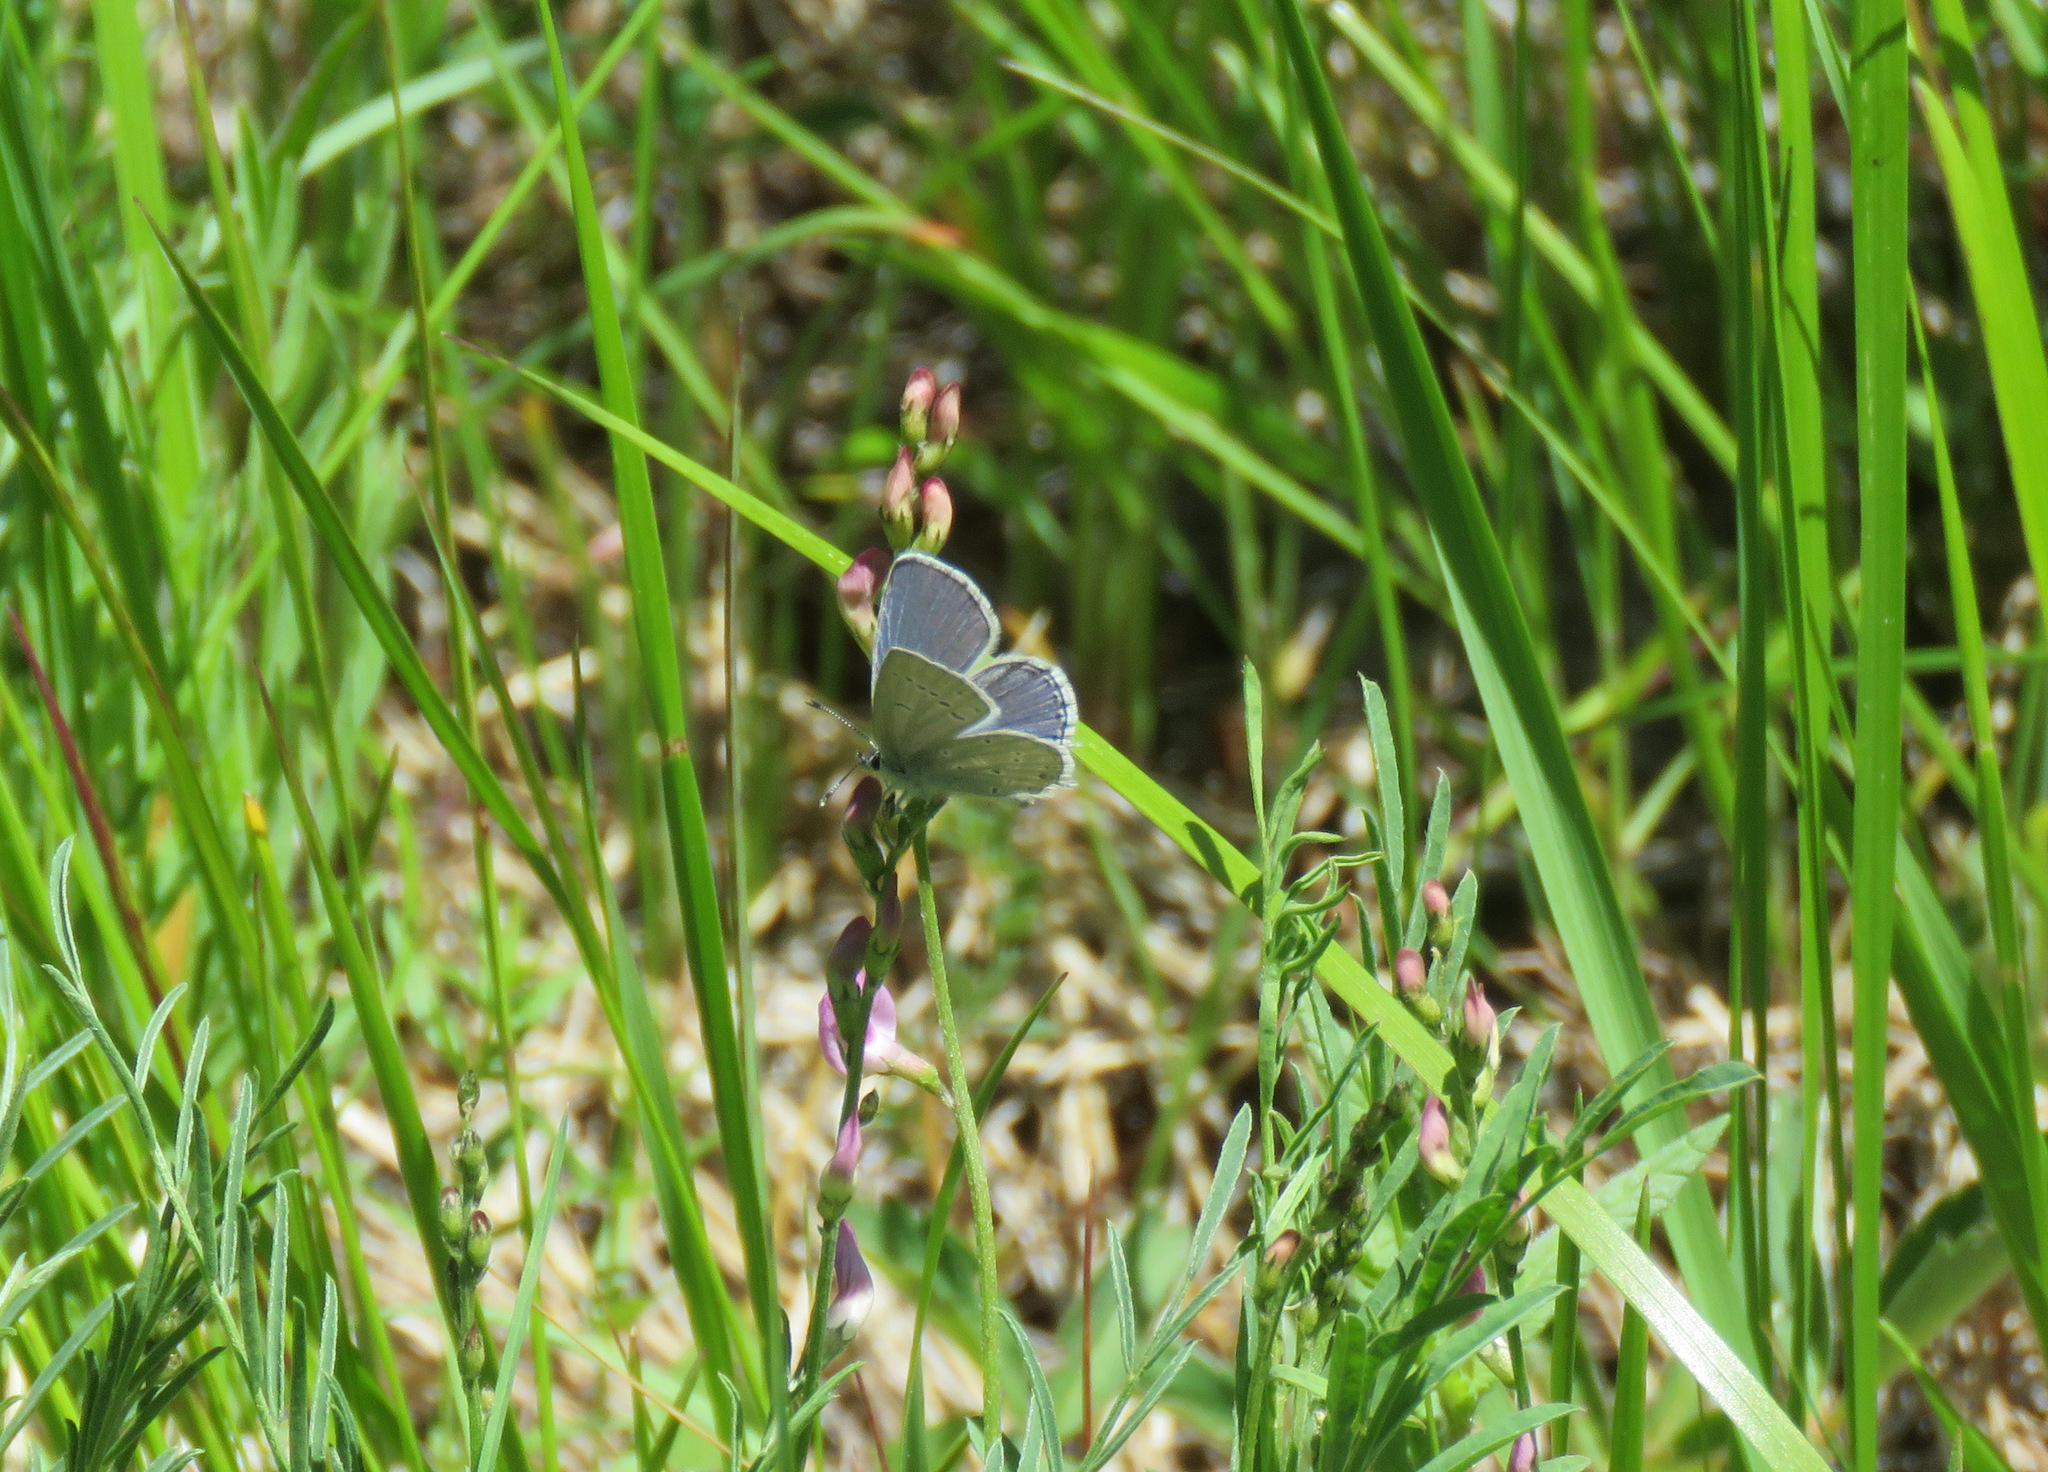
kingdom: Animalia
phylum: Arthropoda
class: Insecta
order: Lepidoptera
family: Lycaenidae
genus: Elkalyce
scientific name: Elkalyce amyntula
